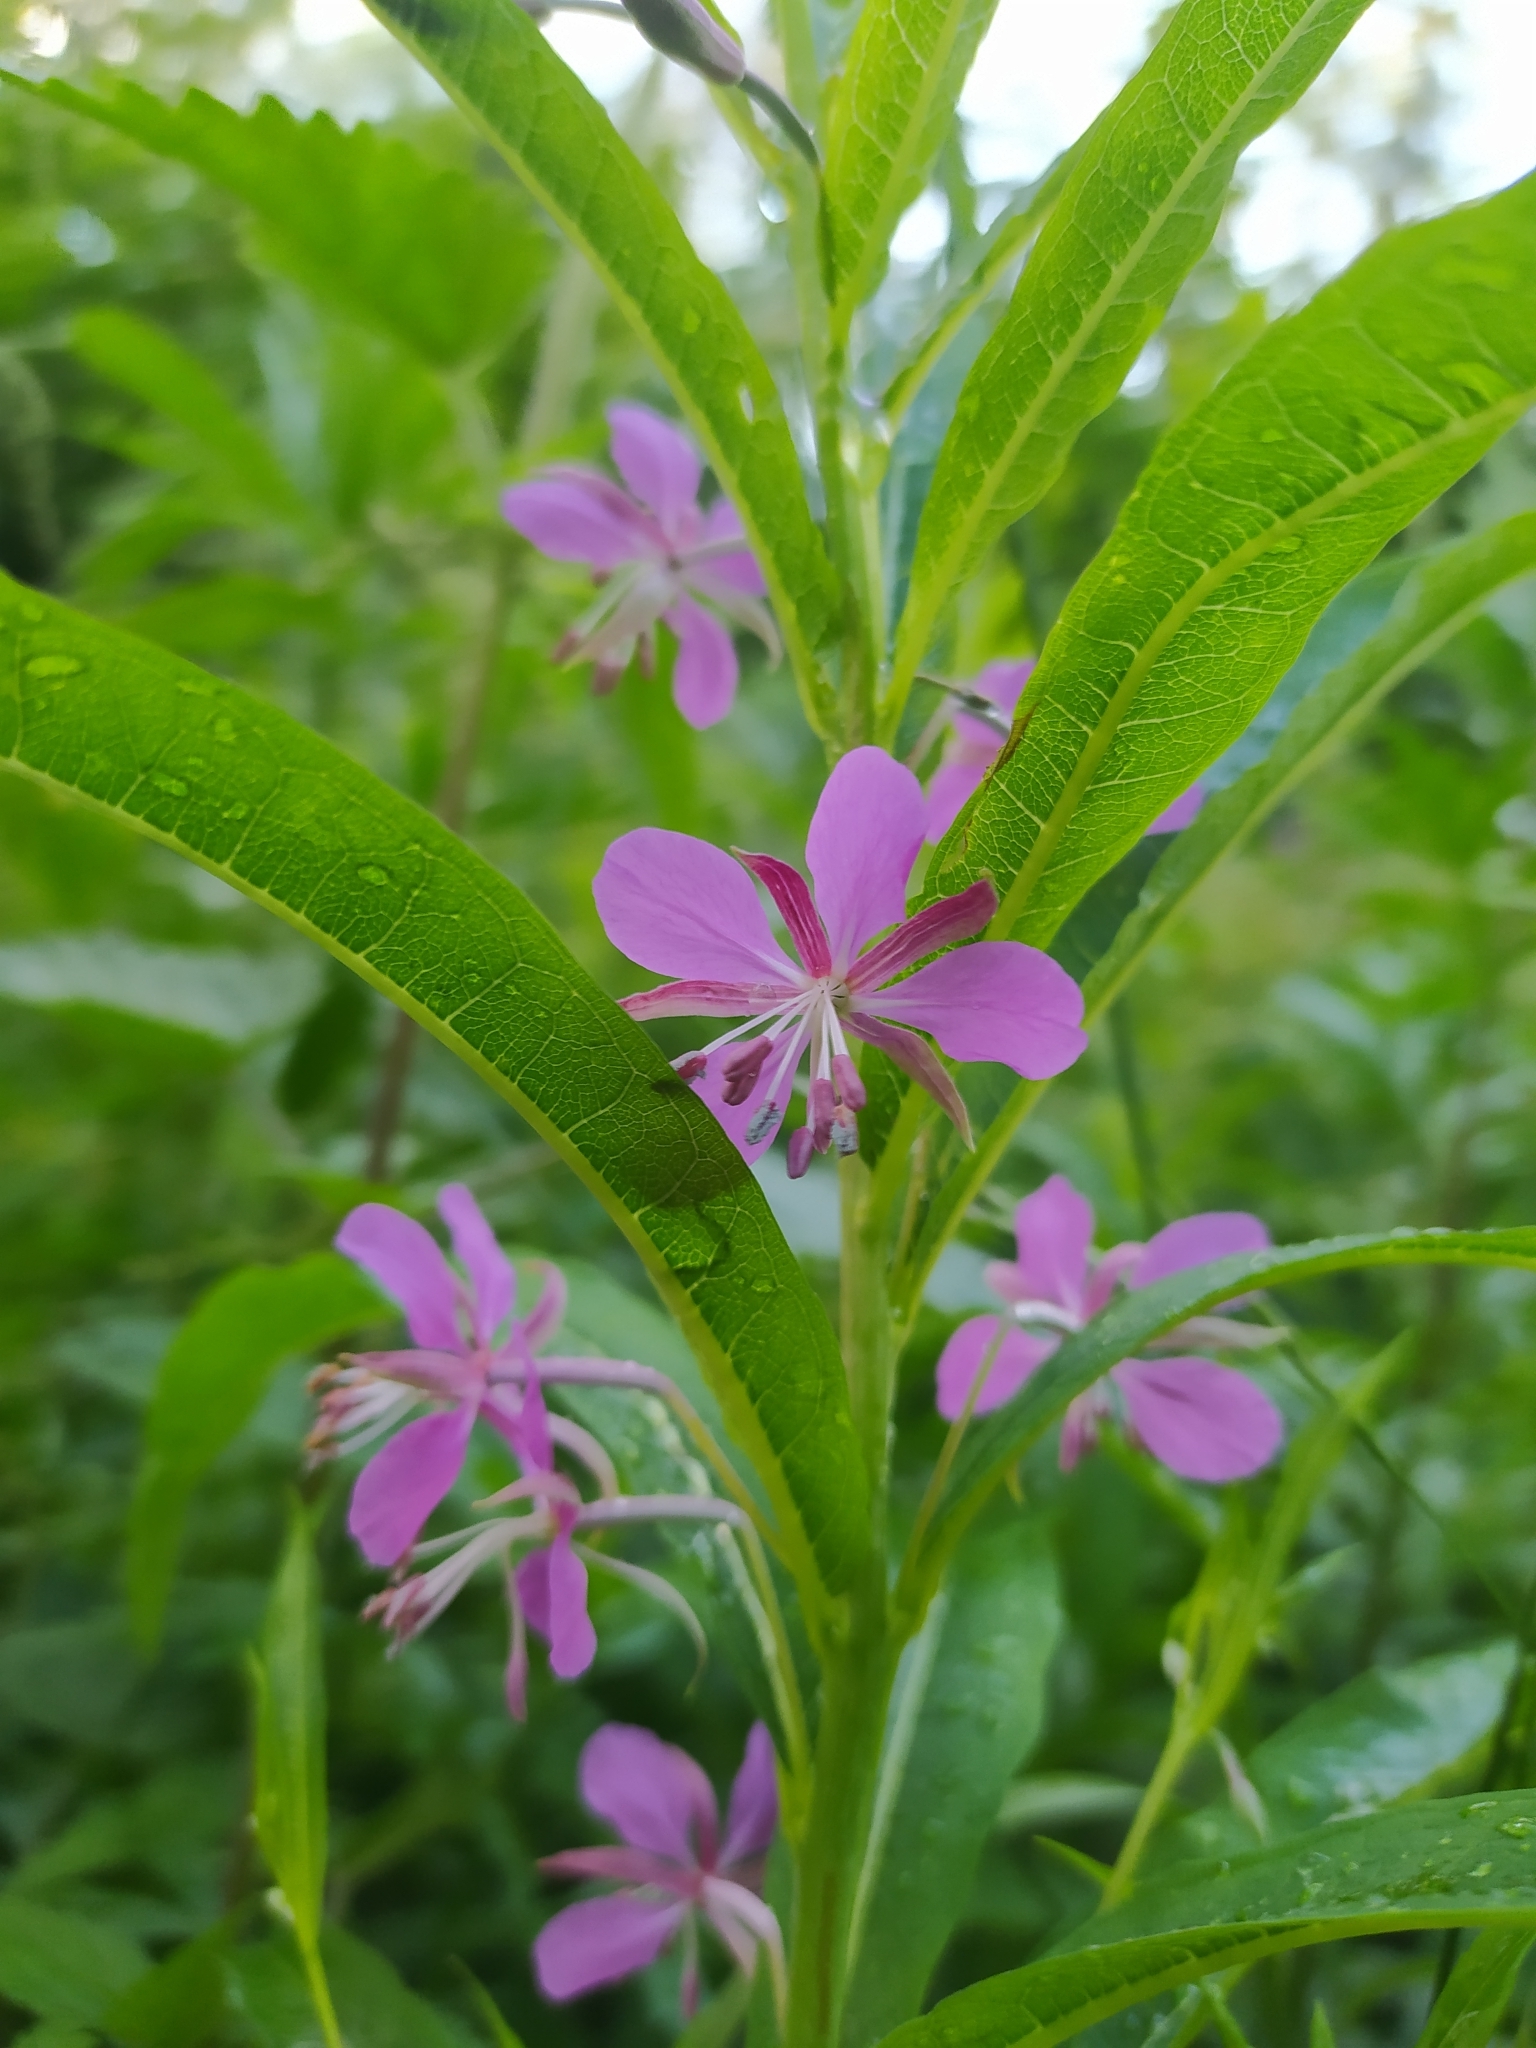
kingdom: Plantae
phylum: Tracheophyta
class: Magnoliopsida
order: Myrtales
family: Onagraceae
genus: Chamaenerion
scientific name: Chamaenerion angustifolium
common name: Fireweed
